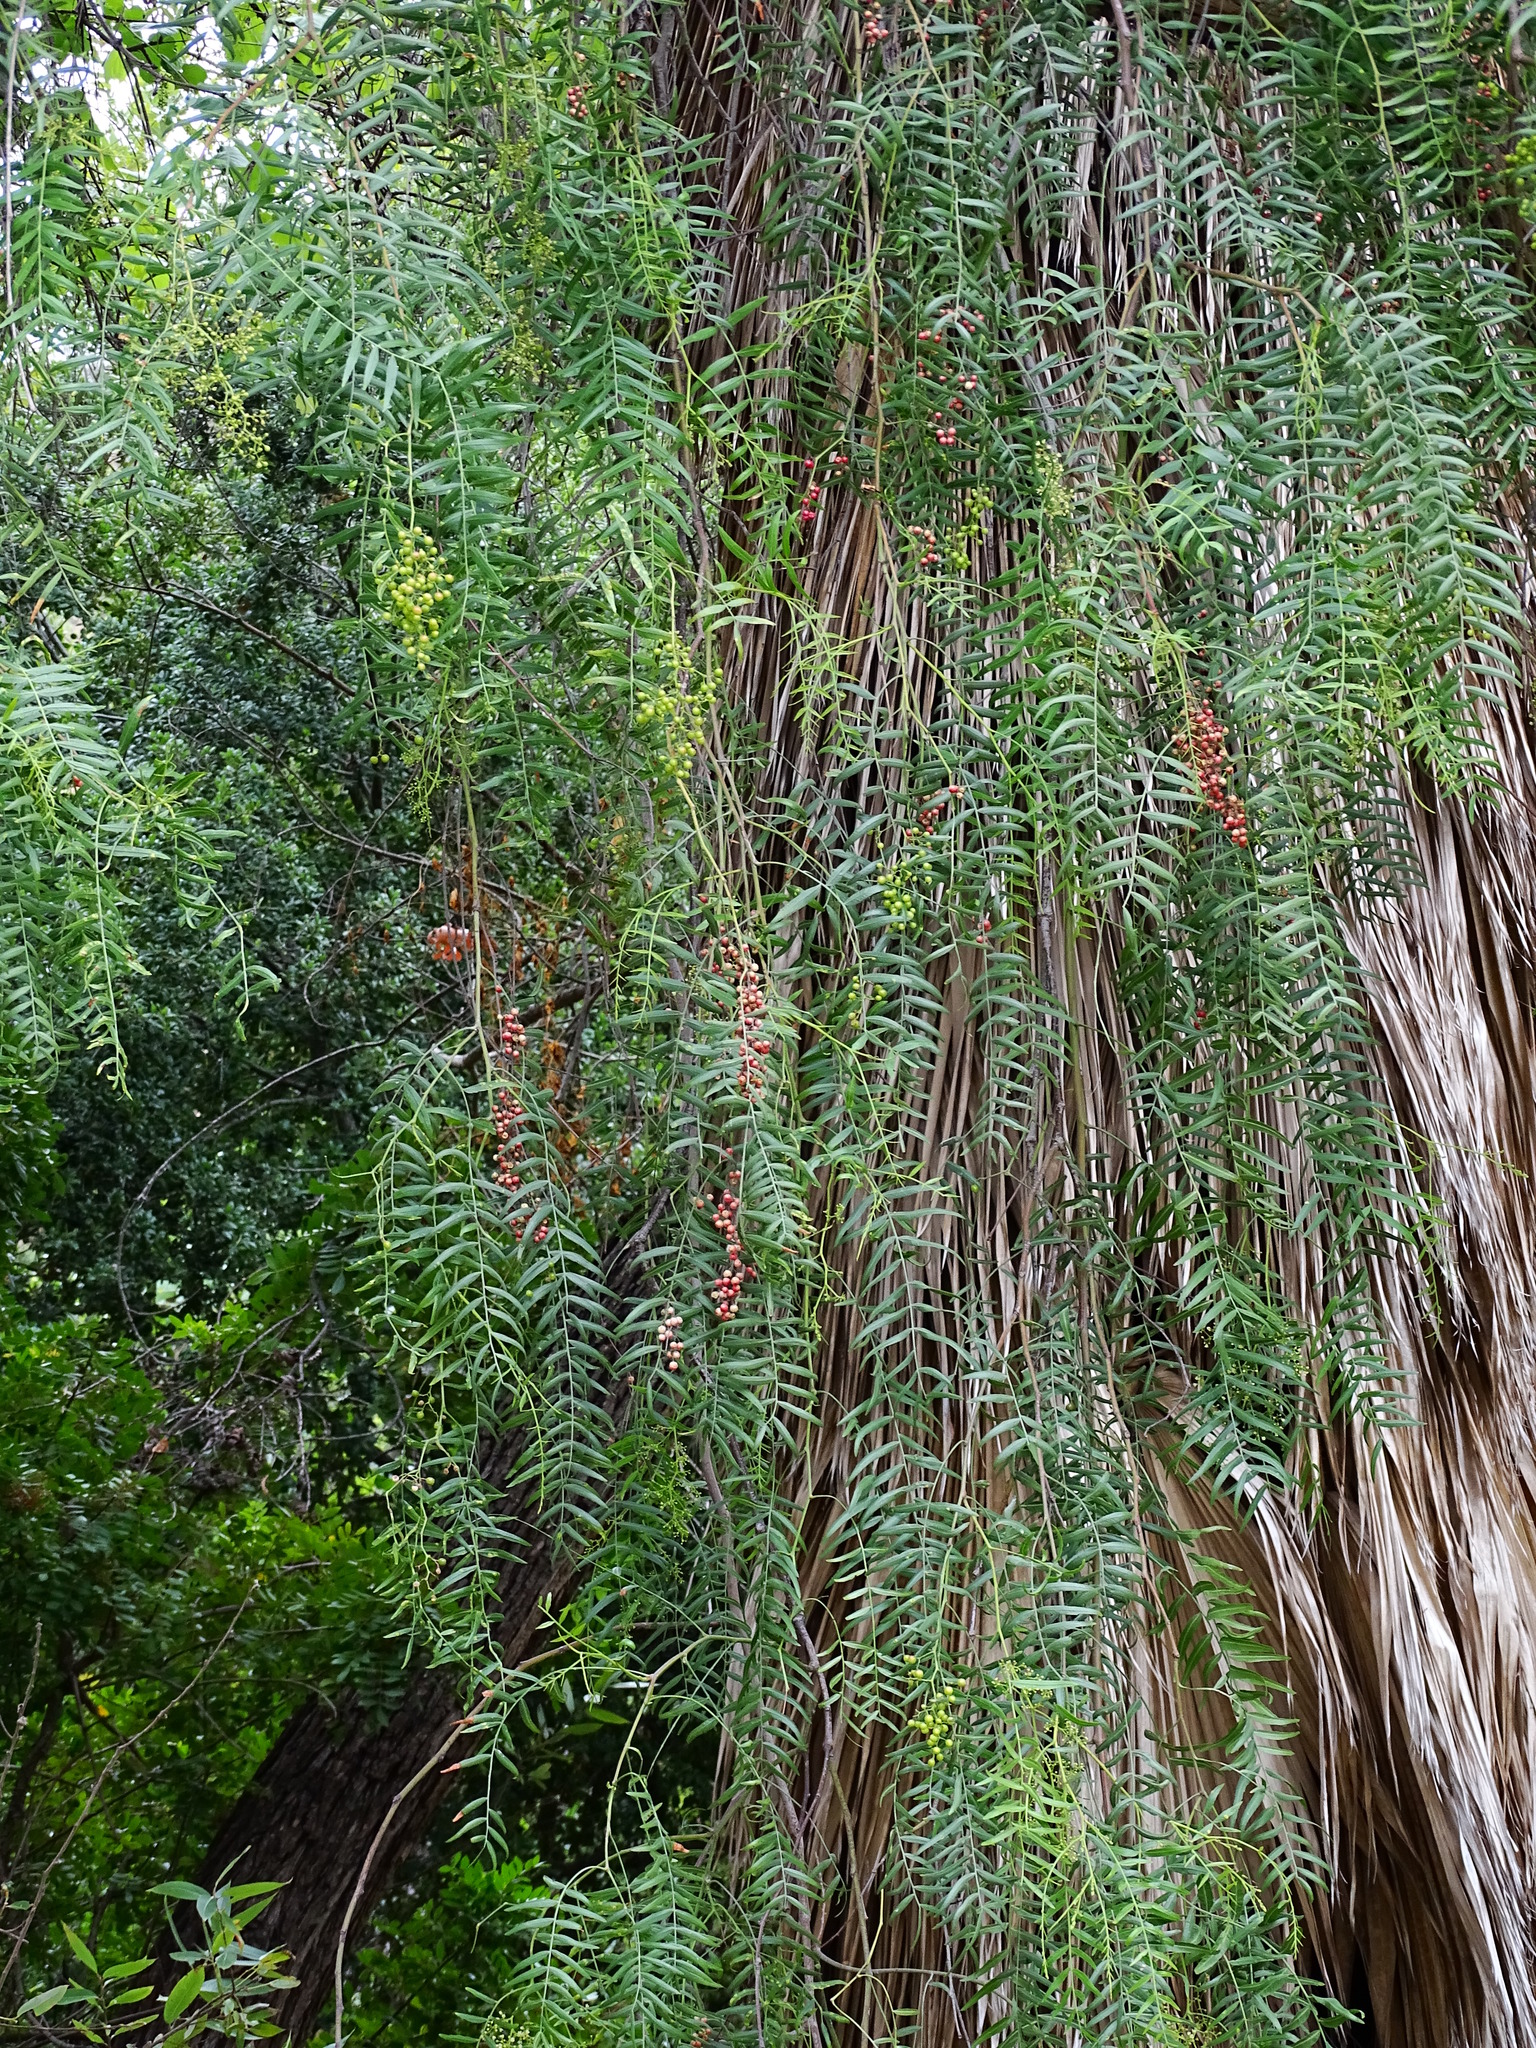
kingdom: Plantae
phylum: Tracheophyta
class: Magnoliopsida
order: Sapindales
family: Anacardiaceae
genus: Schinus
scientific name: Schinus molle
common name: Peruvian peppertree
